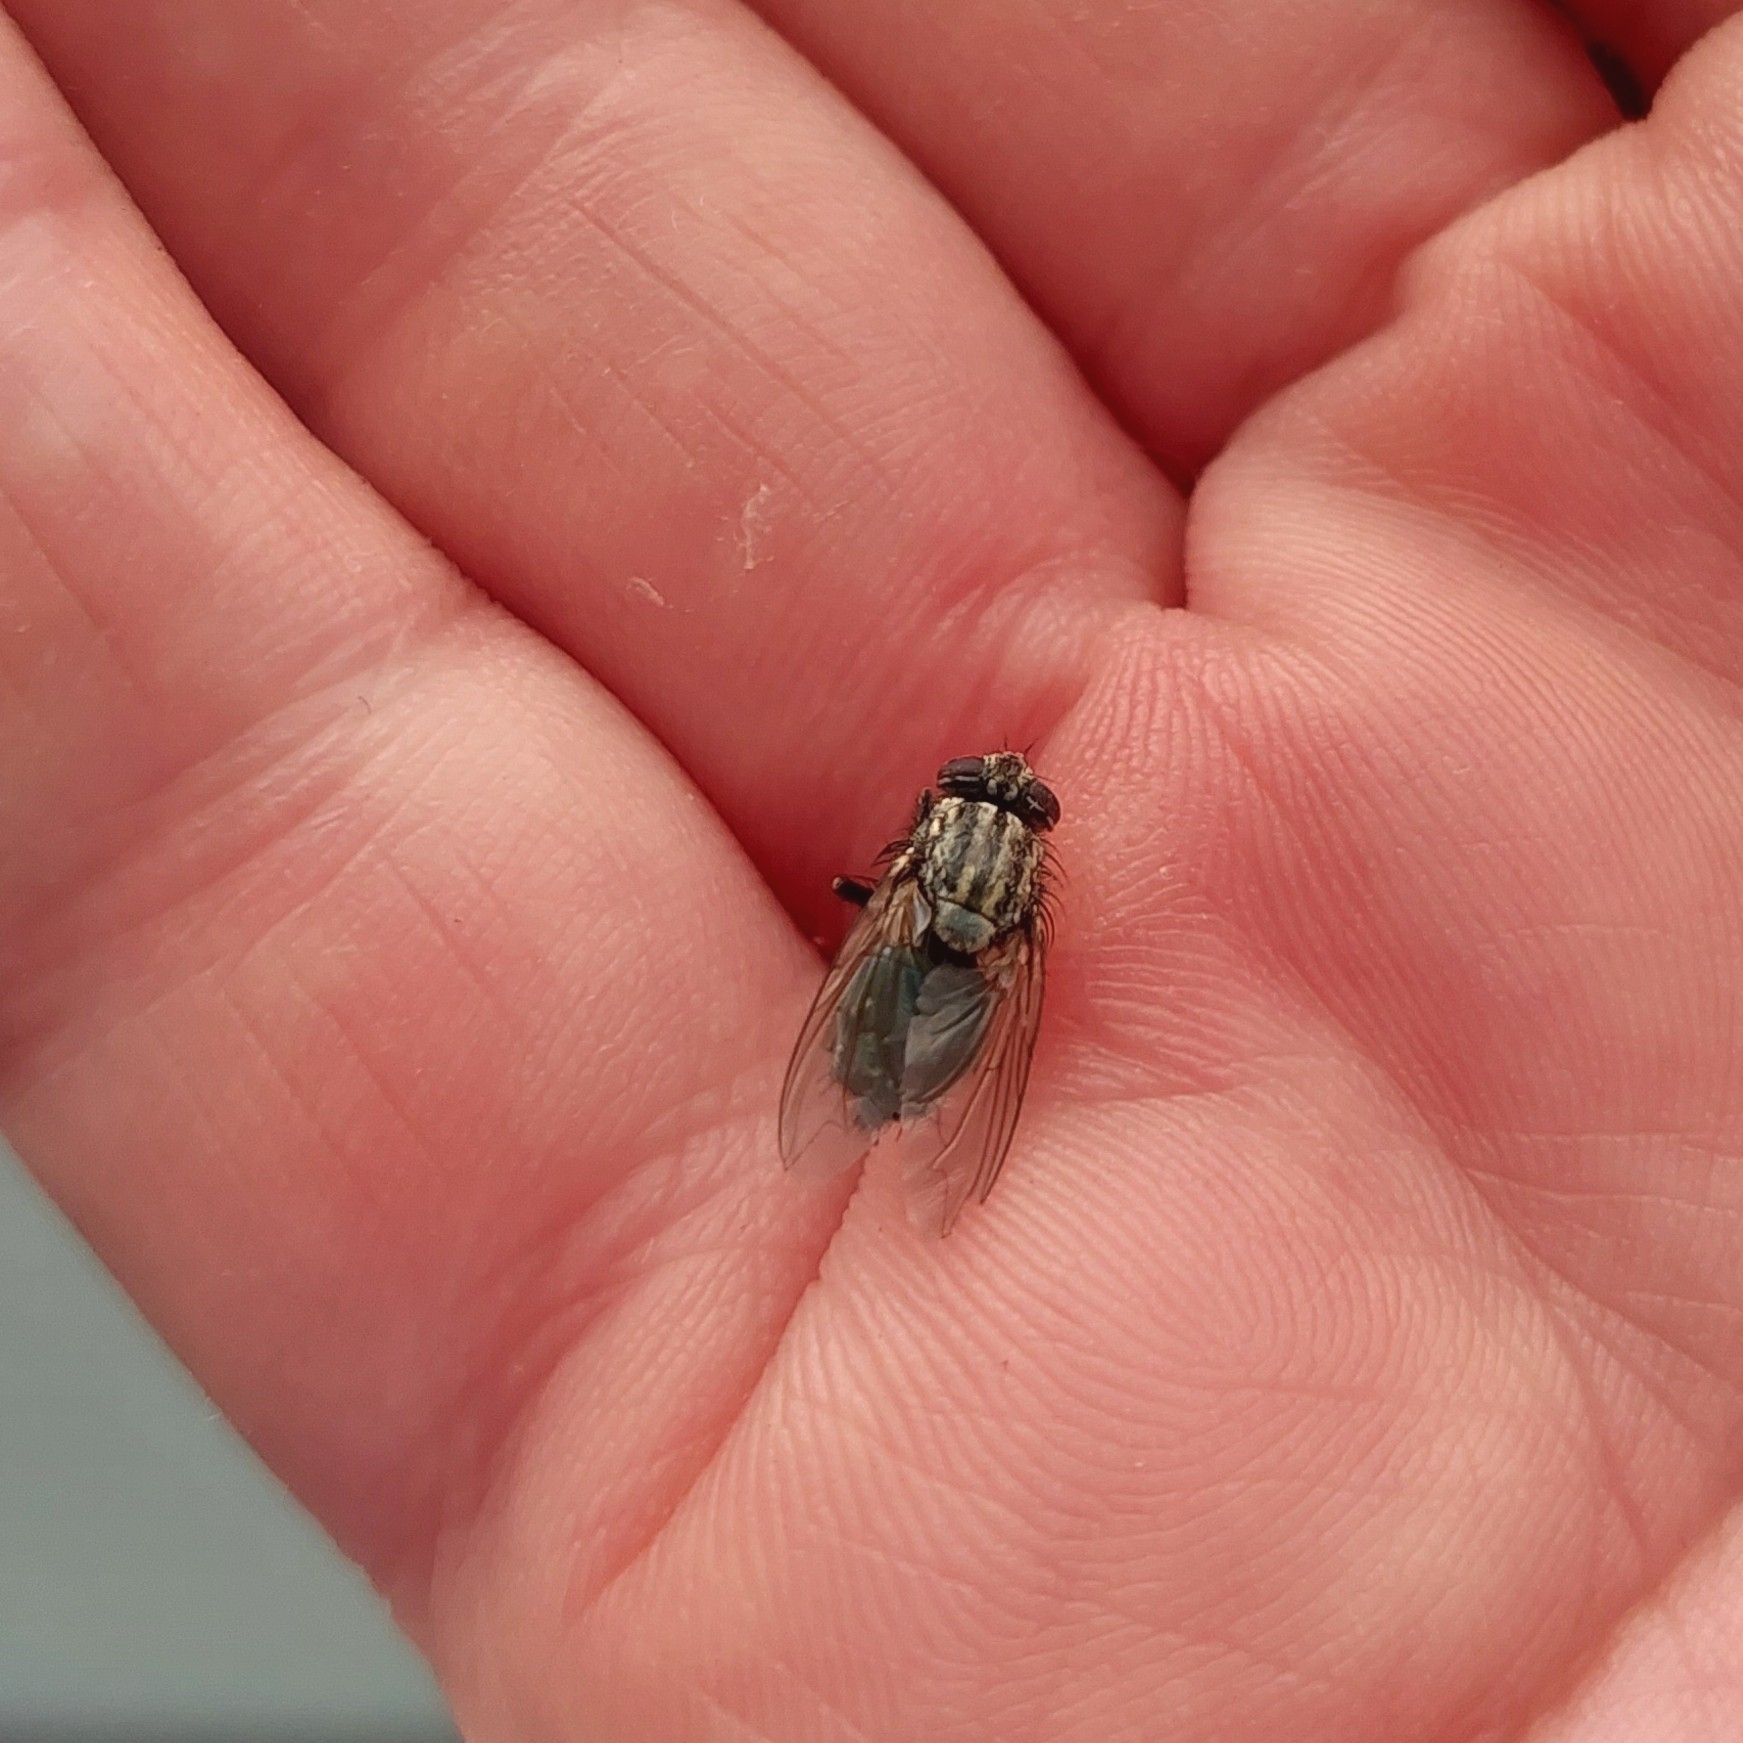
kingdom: Animalia
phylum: Arthropoda
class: Insecta
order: Diptera
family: Calliphoridae
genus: Sarconesia
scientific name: Sarconesia chlorogaster
